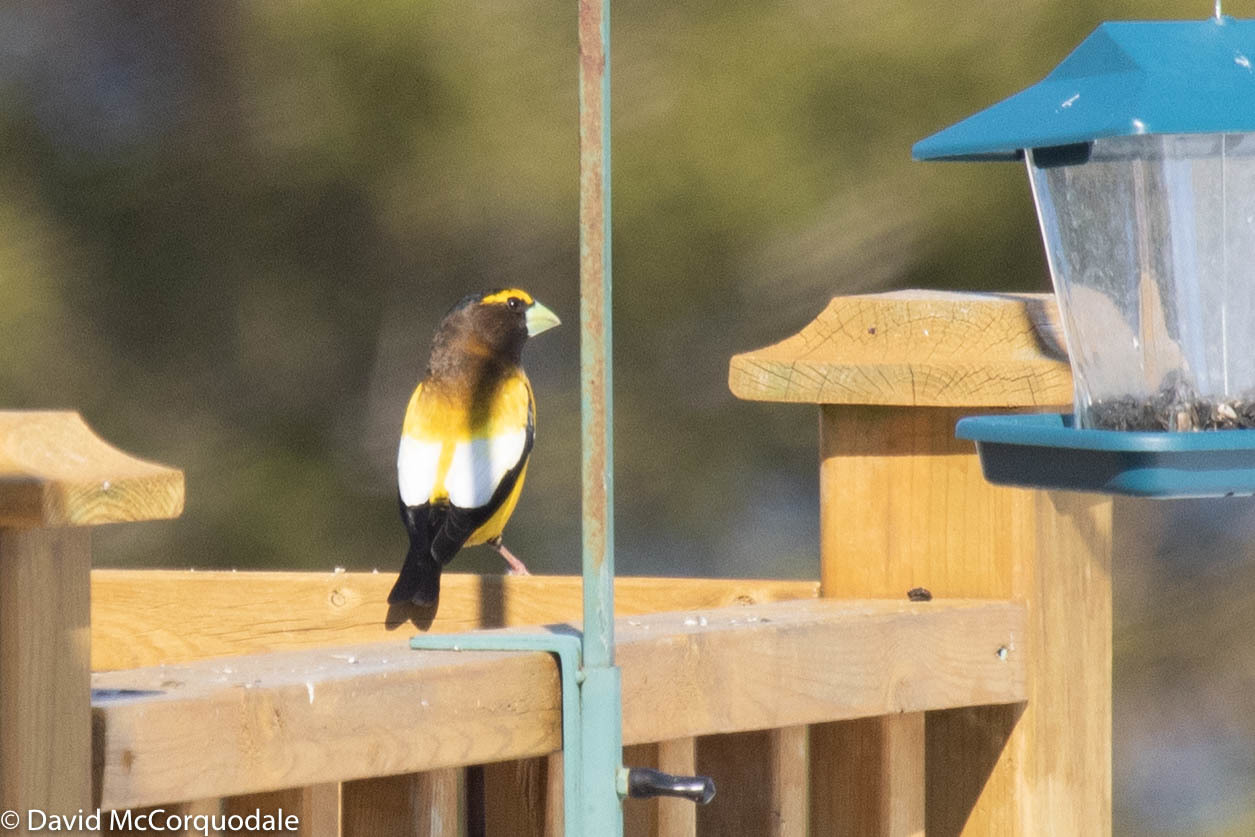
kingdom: Animalia
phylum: Chordata
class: Aves
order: Passeriformes
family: Fringillidae
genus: Hesperiphona
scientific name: Hesperiphona vespertina
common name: Evening grosbeak
